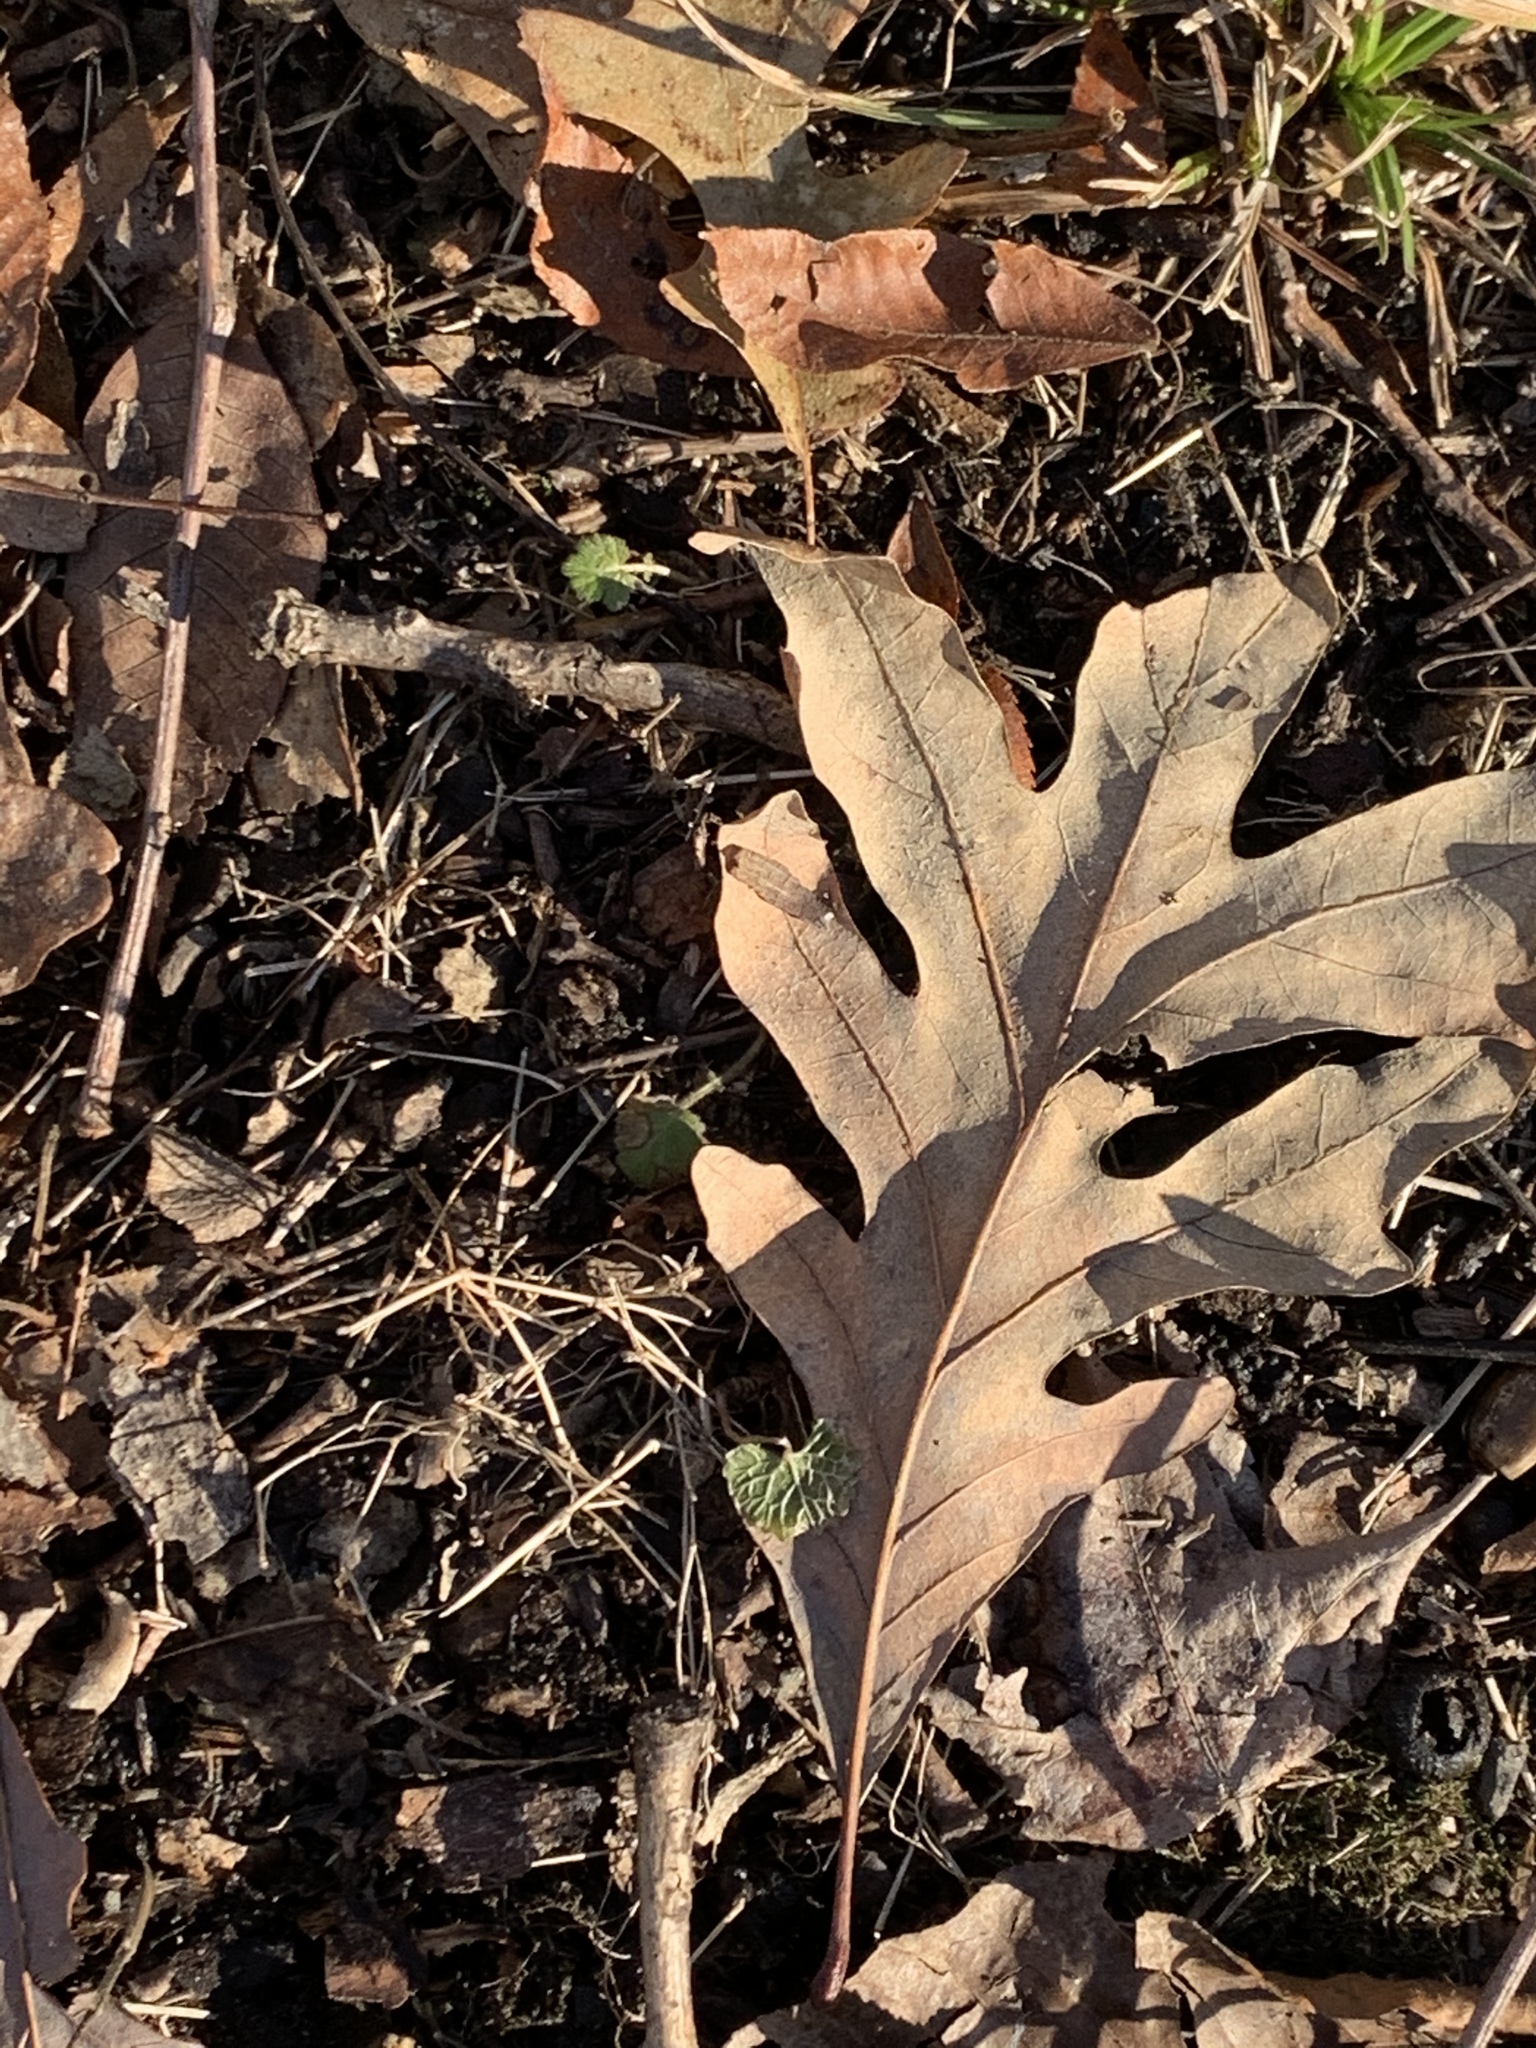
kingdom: Plantae
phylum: Tracheophyta
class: Magnoliopsida
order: Fagales
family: Fagaceae
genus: Quercus
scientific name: Quercus alba
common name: White oak
